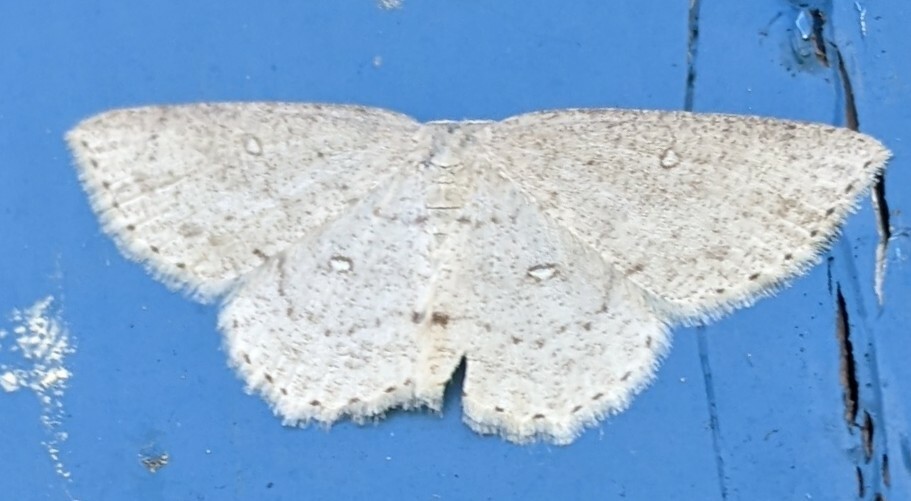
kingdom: Animalia
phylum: Arthropoda
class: Insecta
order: Lepidoptera
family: Geometridae
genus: Cyclophora
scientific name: Cyclophora pendulinaria
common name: Sweet fern geometer
